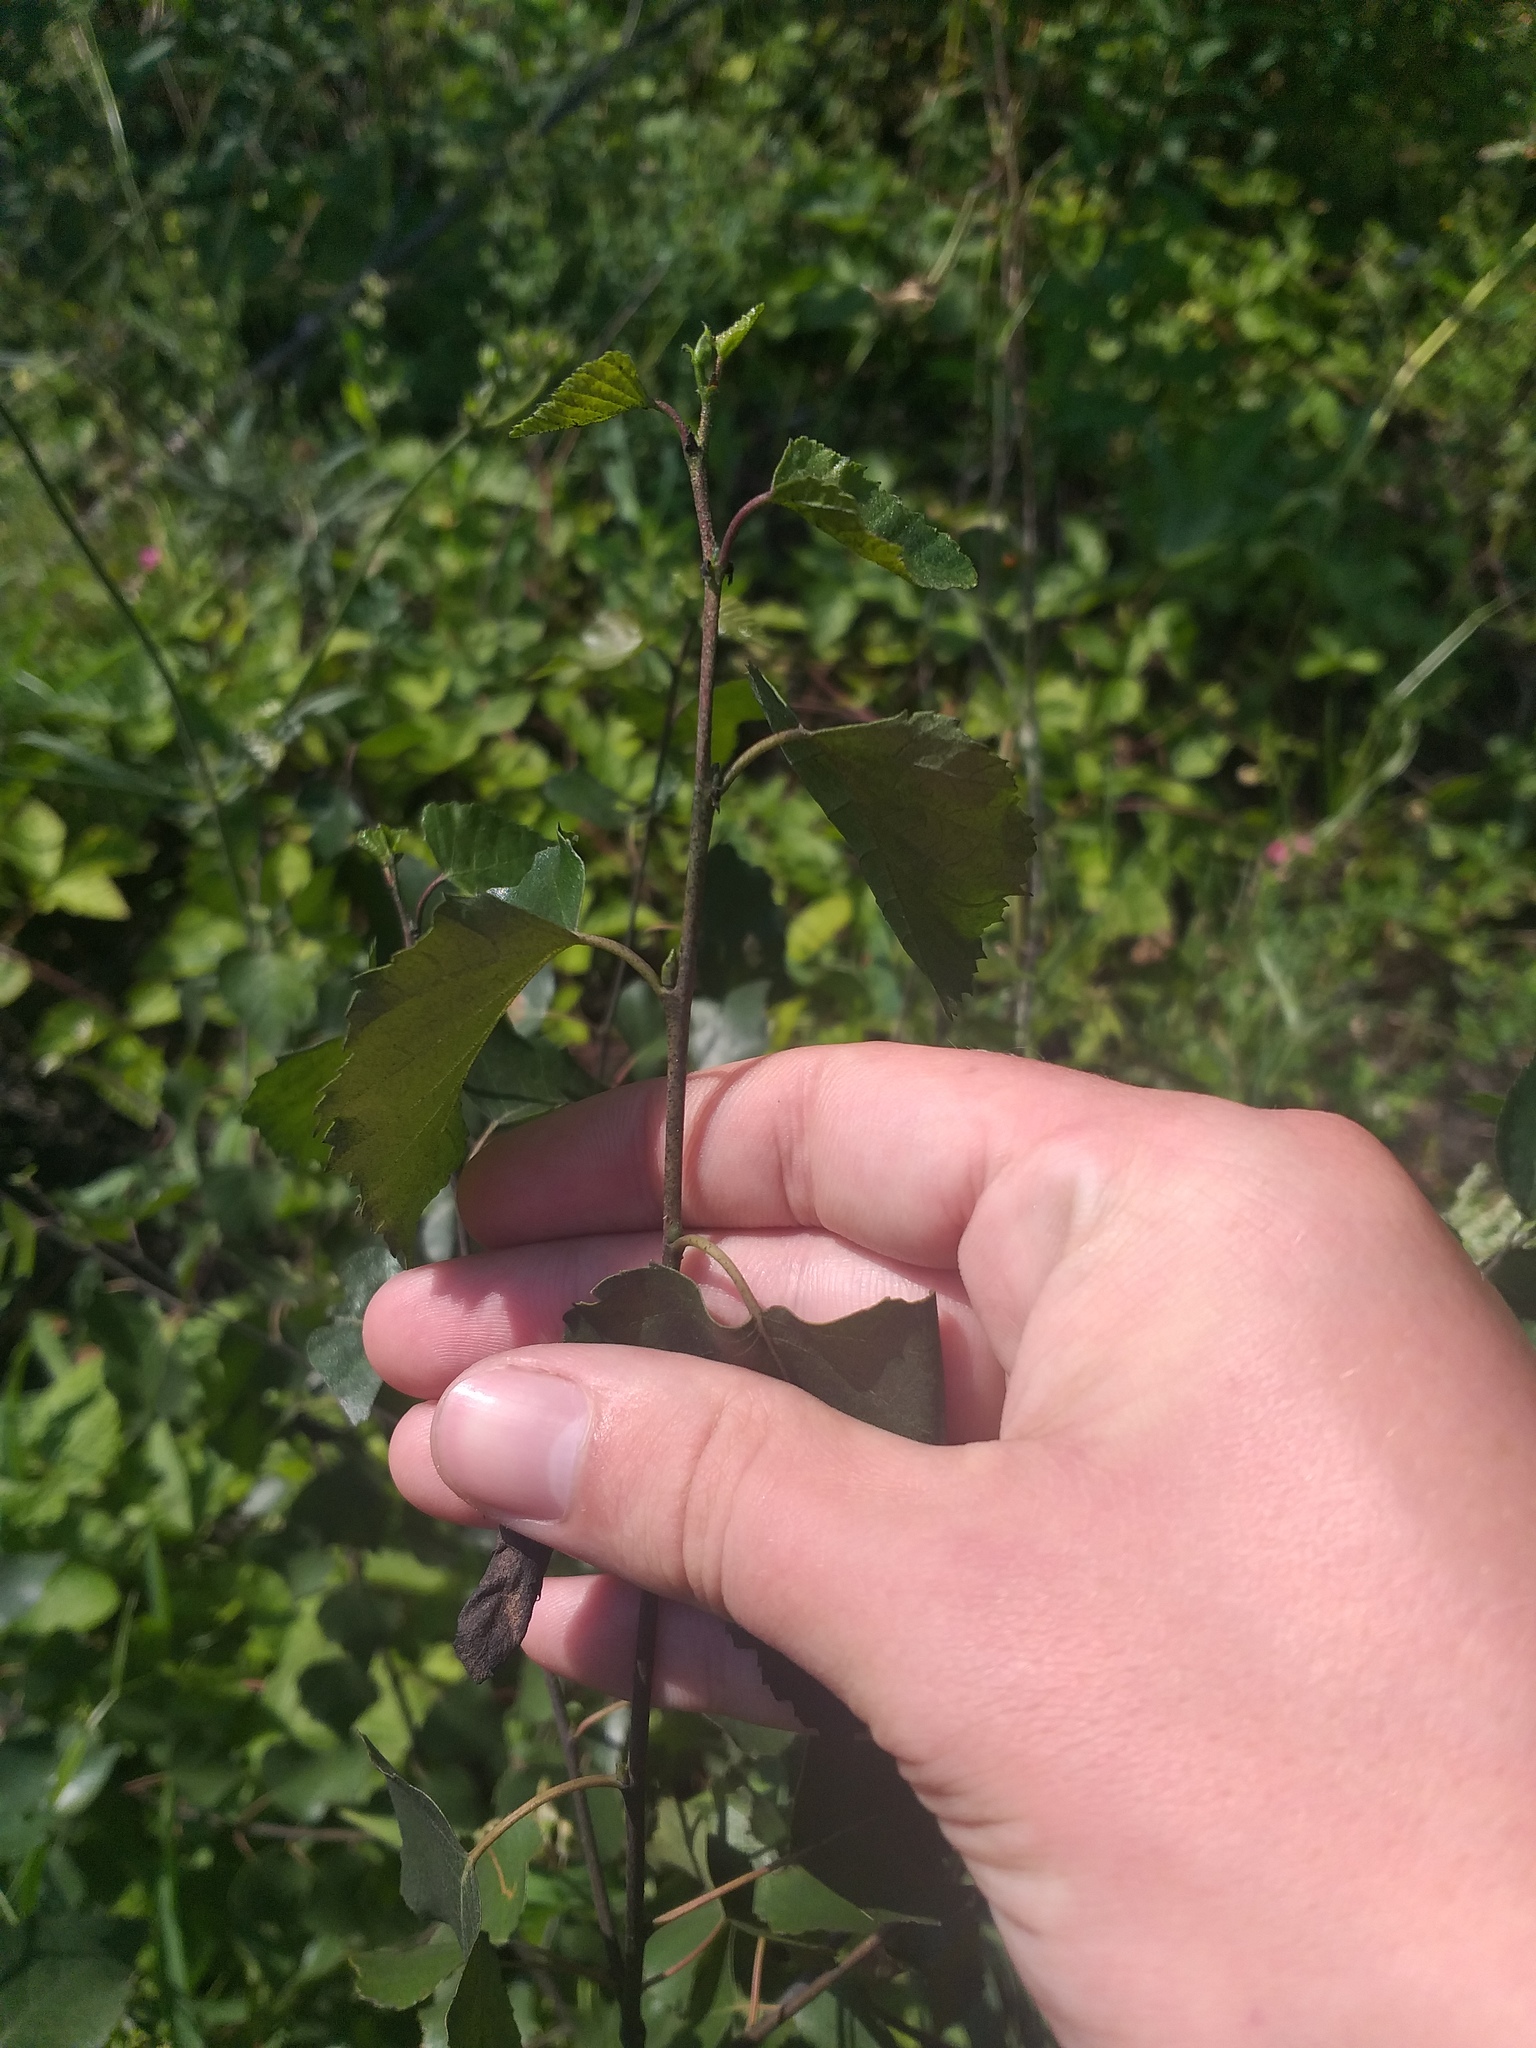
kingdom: Plantae
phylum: Tracheophyta
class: Magnoliopsida
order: Fagales
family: Betulaceae
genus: Betula
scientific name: Betula pendula
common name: Silver birch
